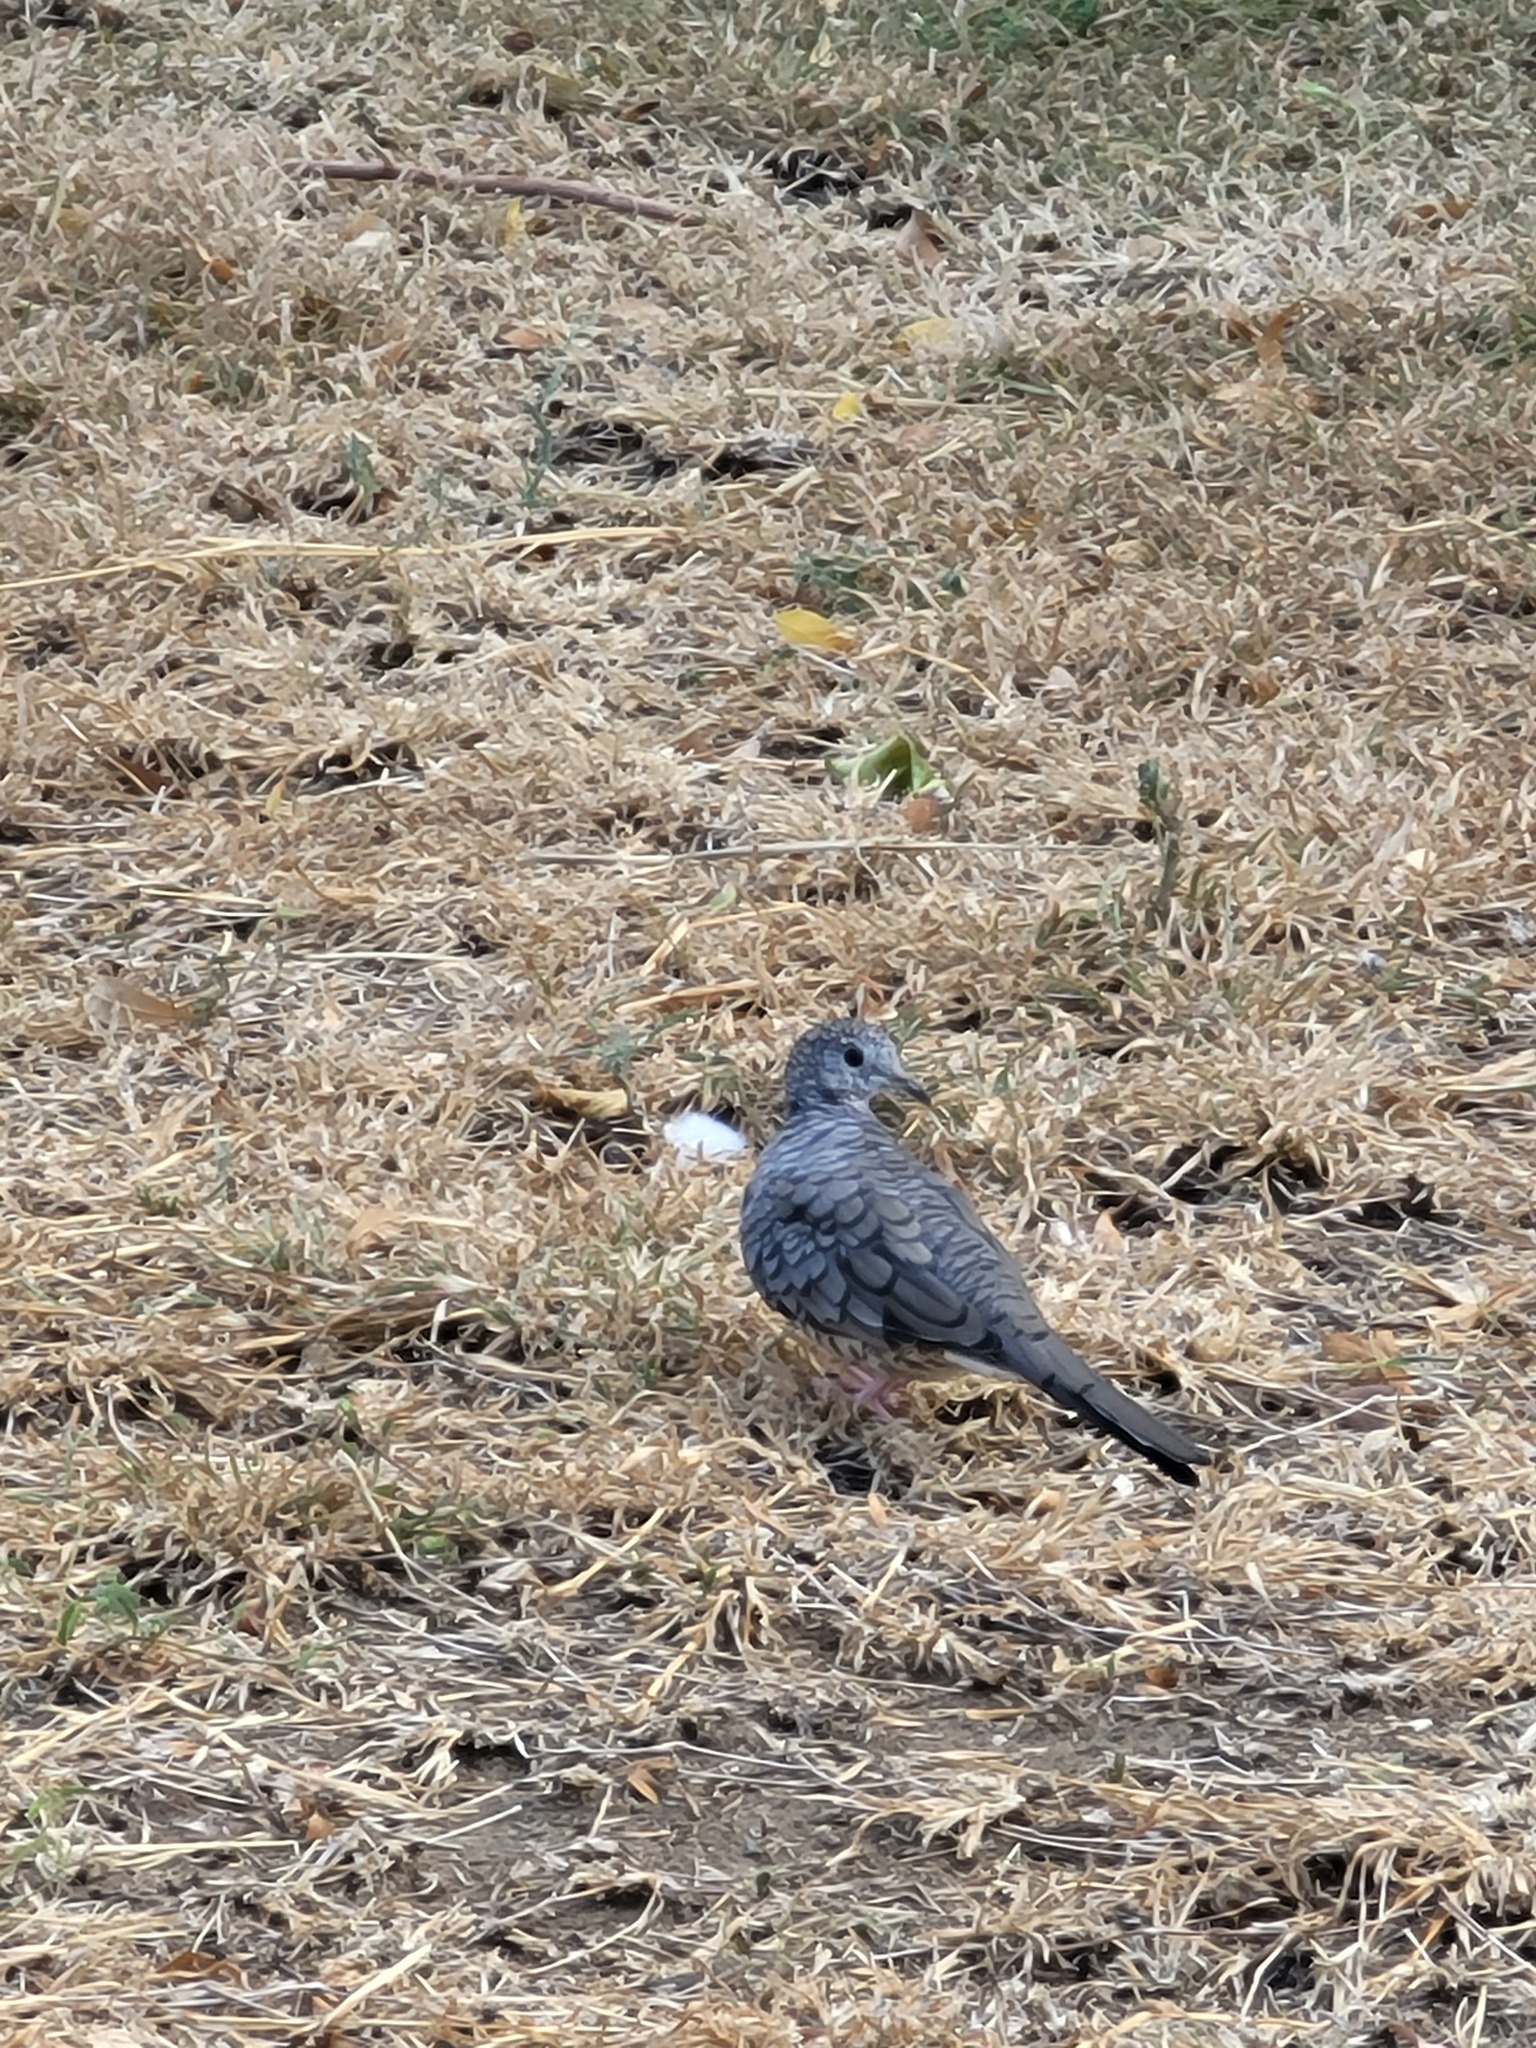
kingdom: Animalia
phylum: Chordata
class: Aves
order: Columbiformes
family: Columbidae
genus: Columbina
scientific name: Columbina inca
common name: Inca dove
